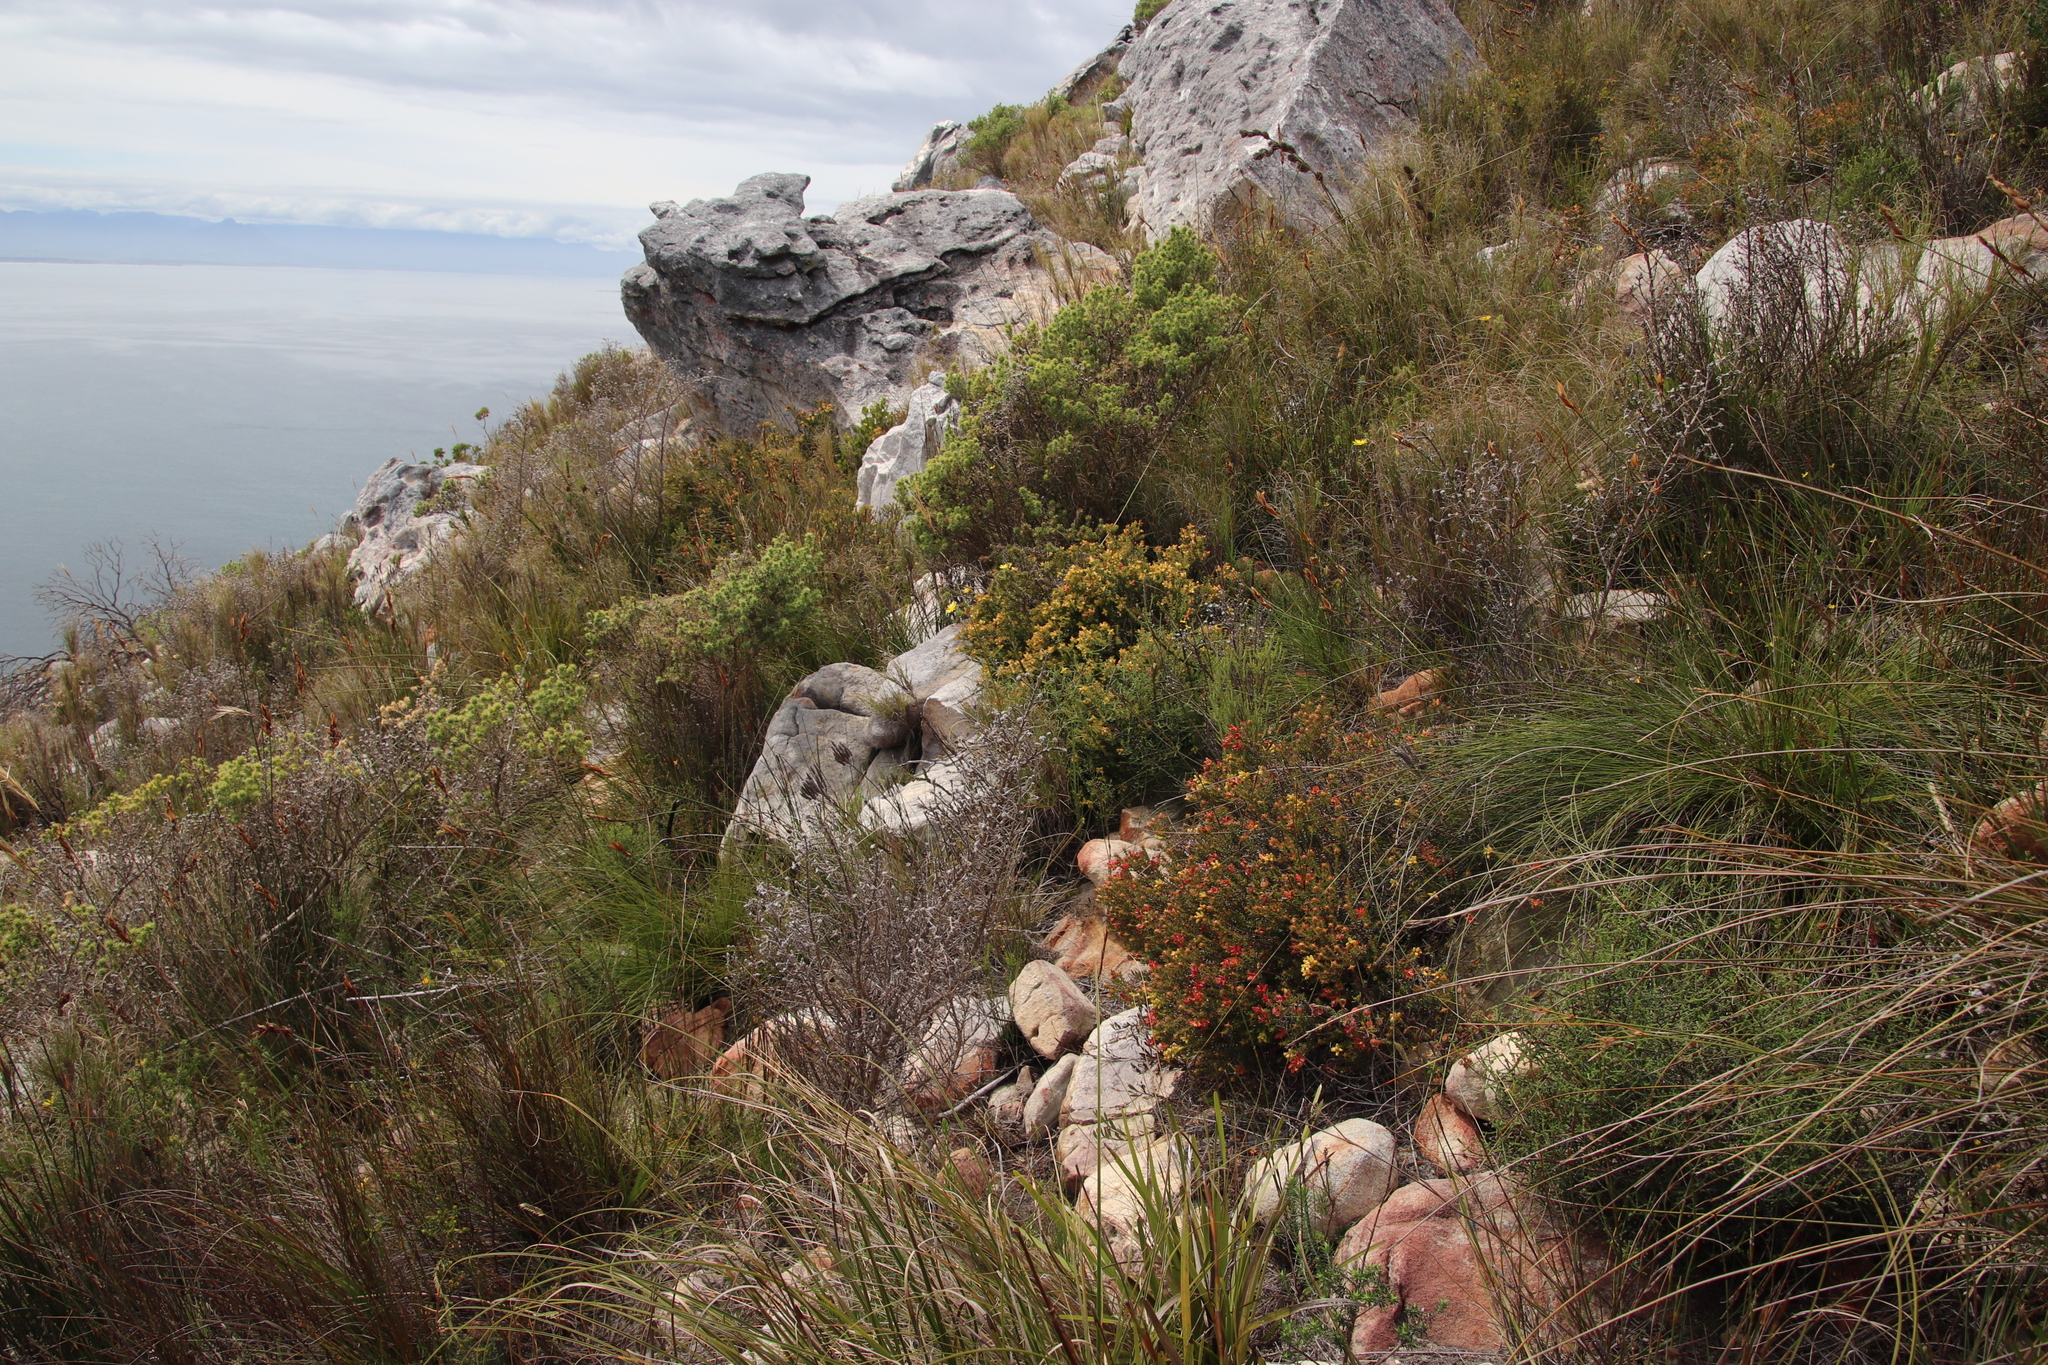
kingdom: Plantae
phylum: Tracheophyta
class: Magnoliopsida
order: Myrtales
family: Penaeaceae
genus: Penaea
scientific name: Penaea mucronata
